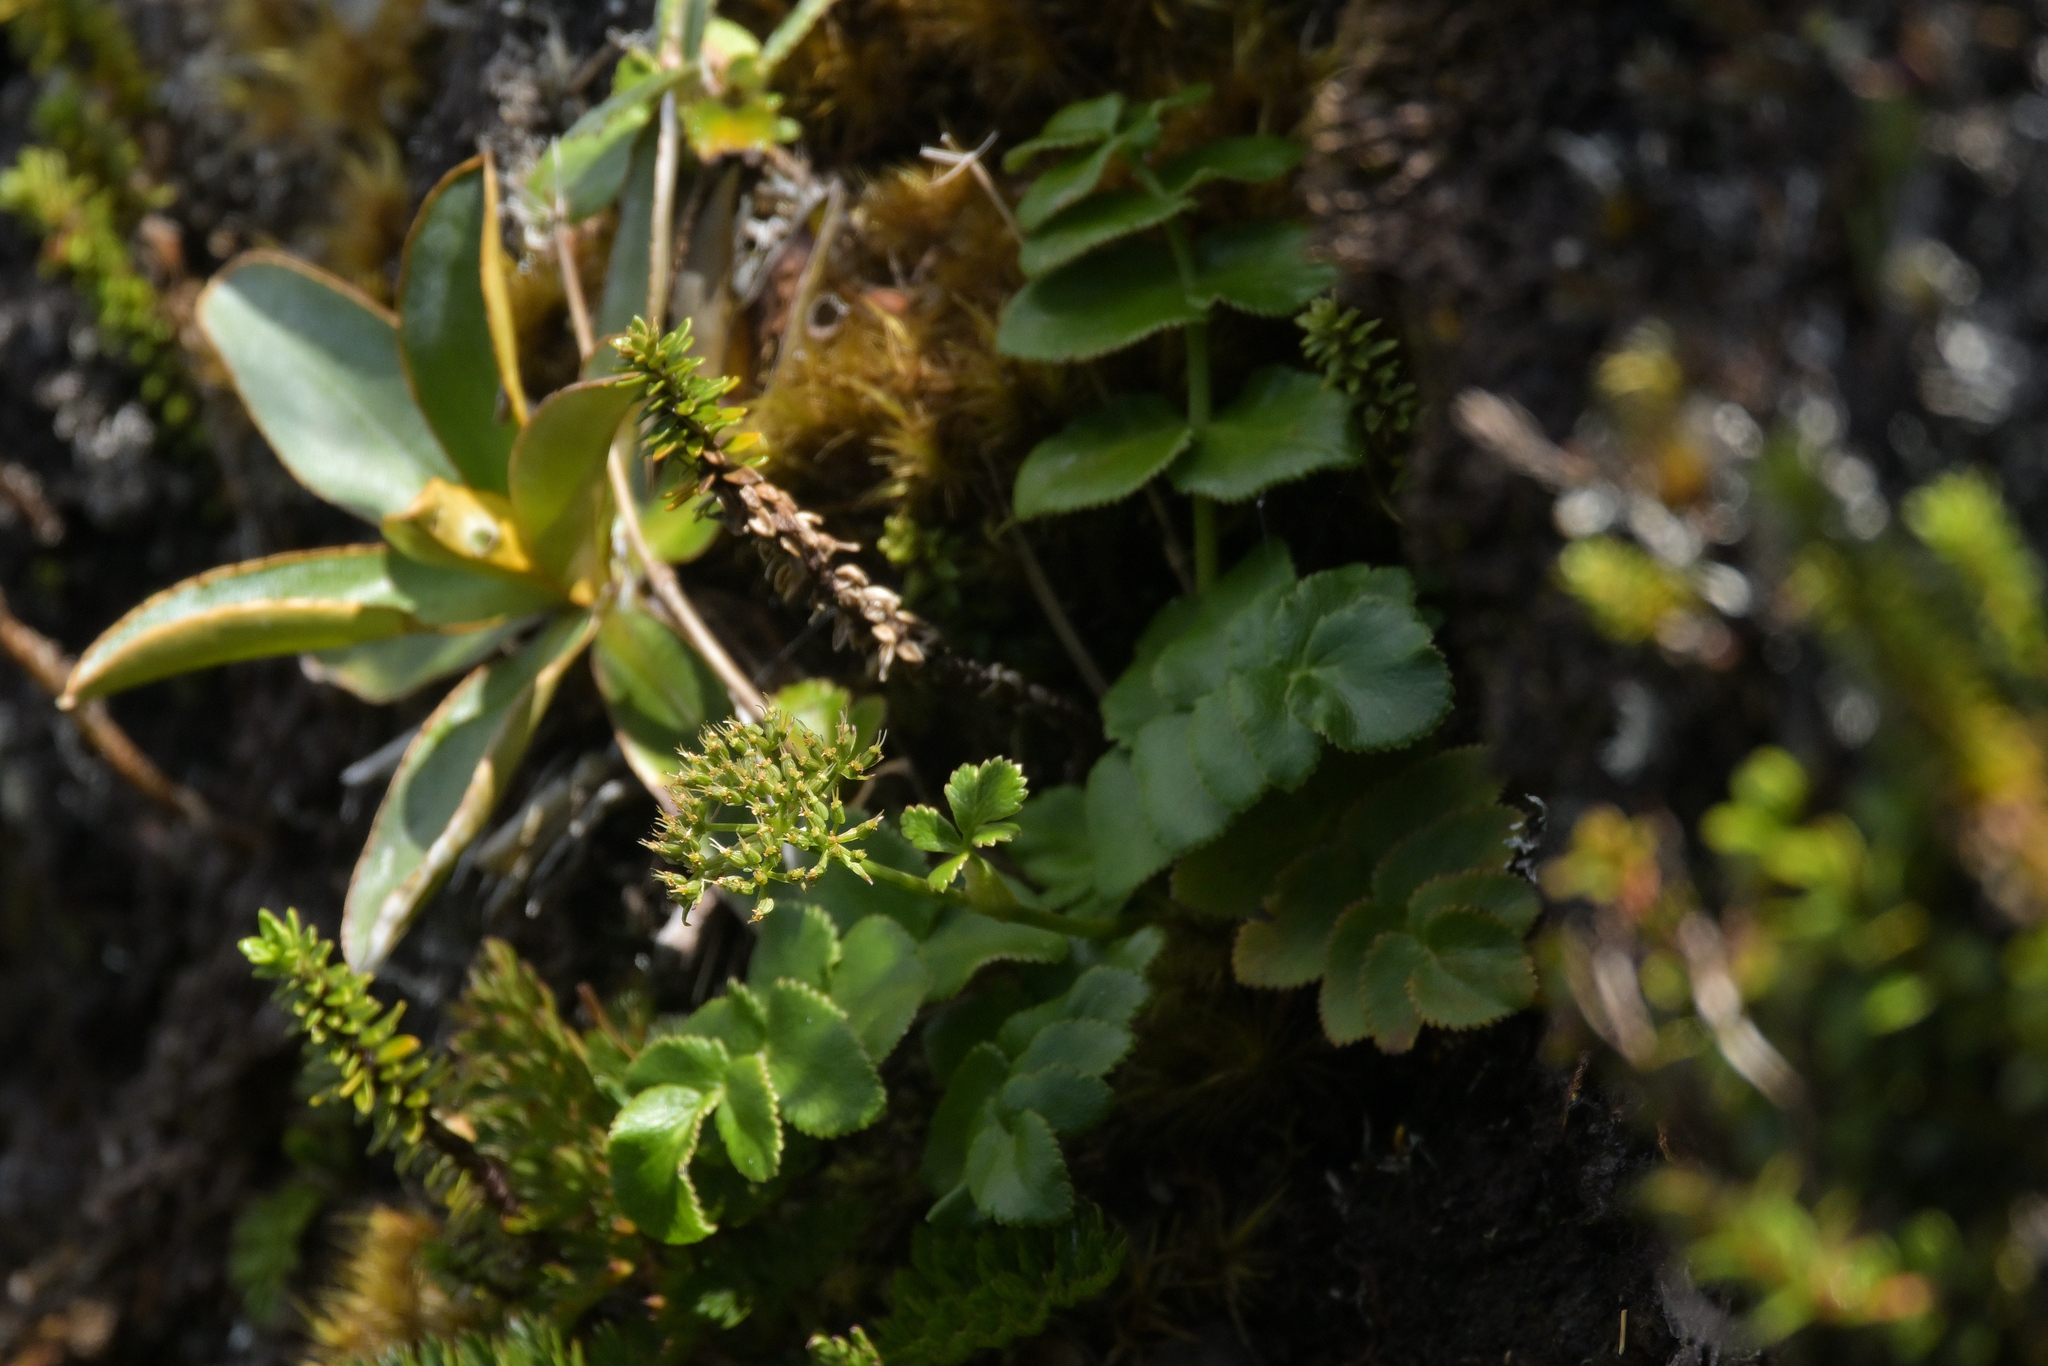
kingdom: Plantae
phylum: Tracheophyta
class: Magnoliopsida
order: Apiales
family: Apiaceae
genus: Gingidia
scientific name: Gingidia montana
